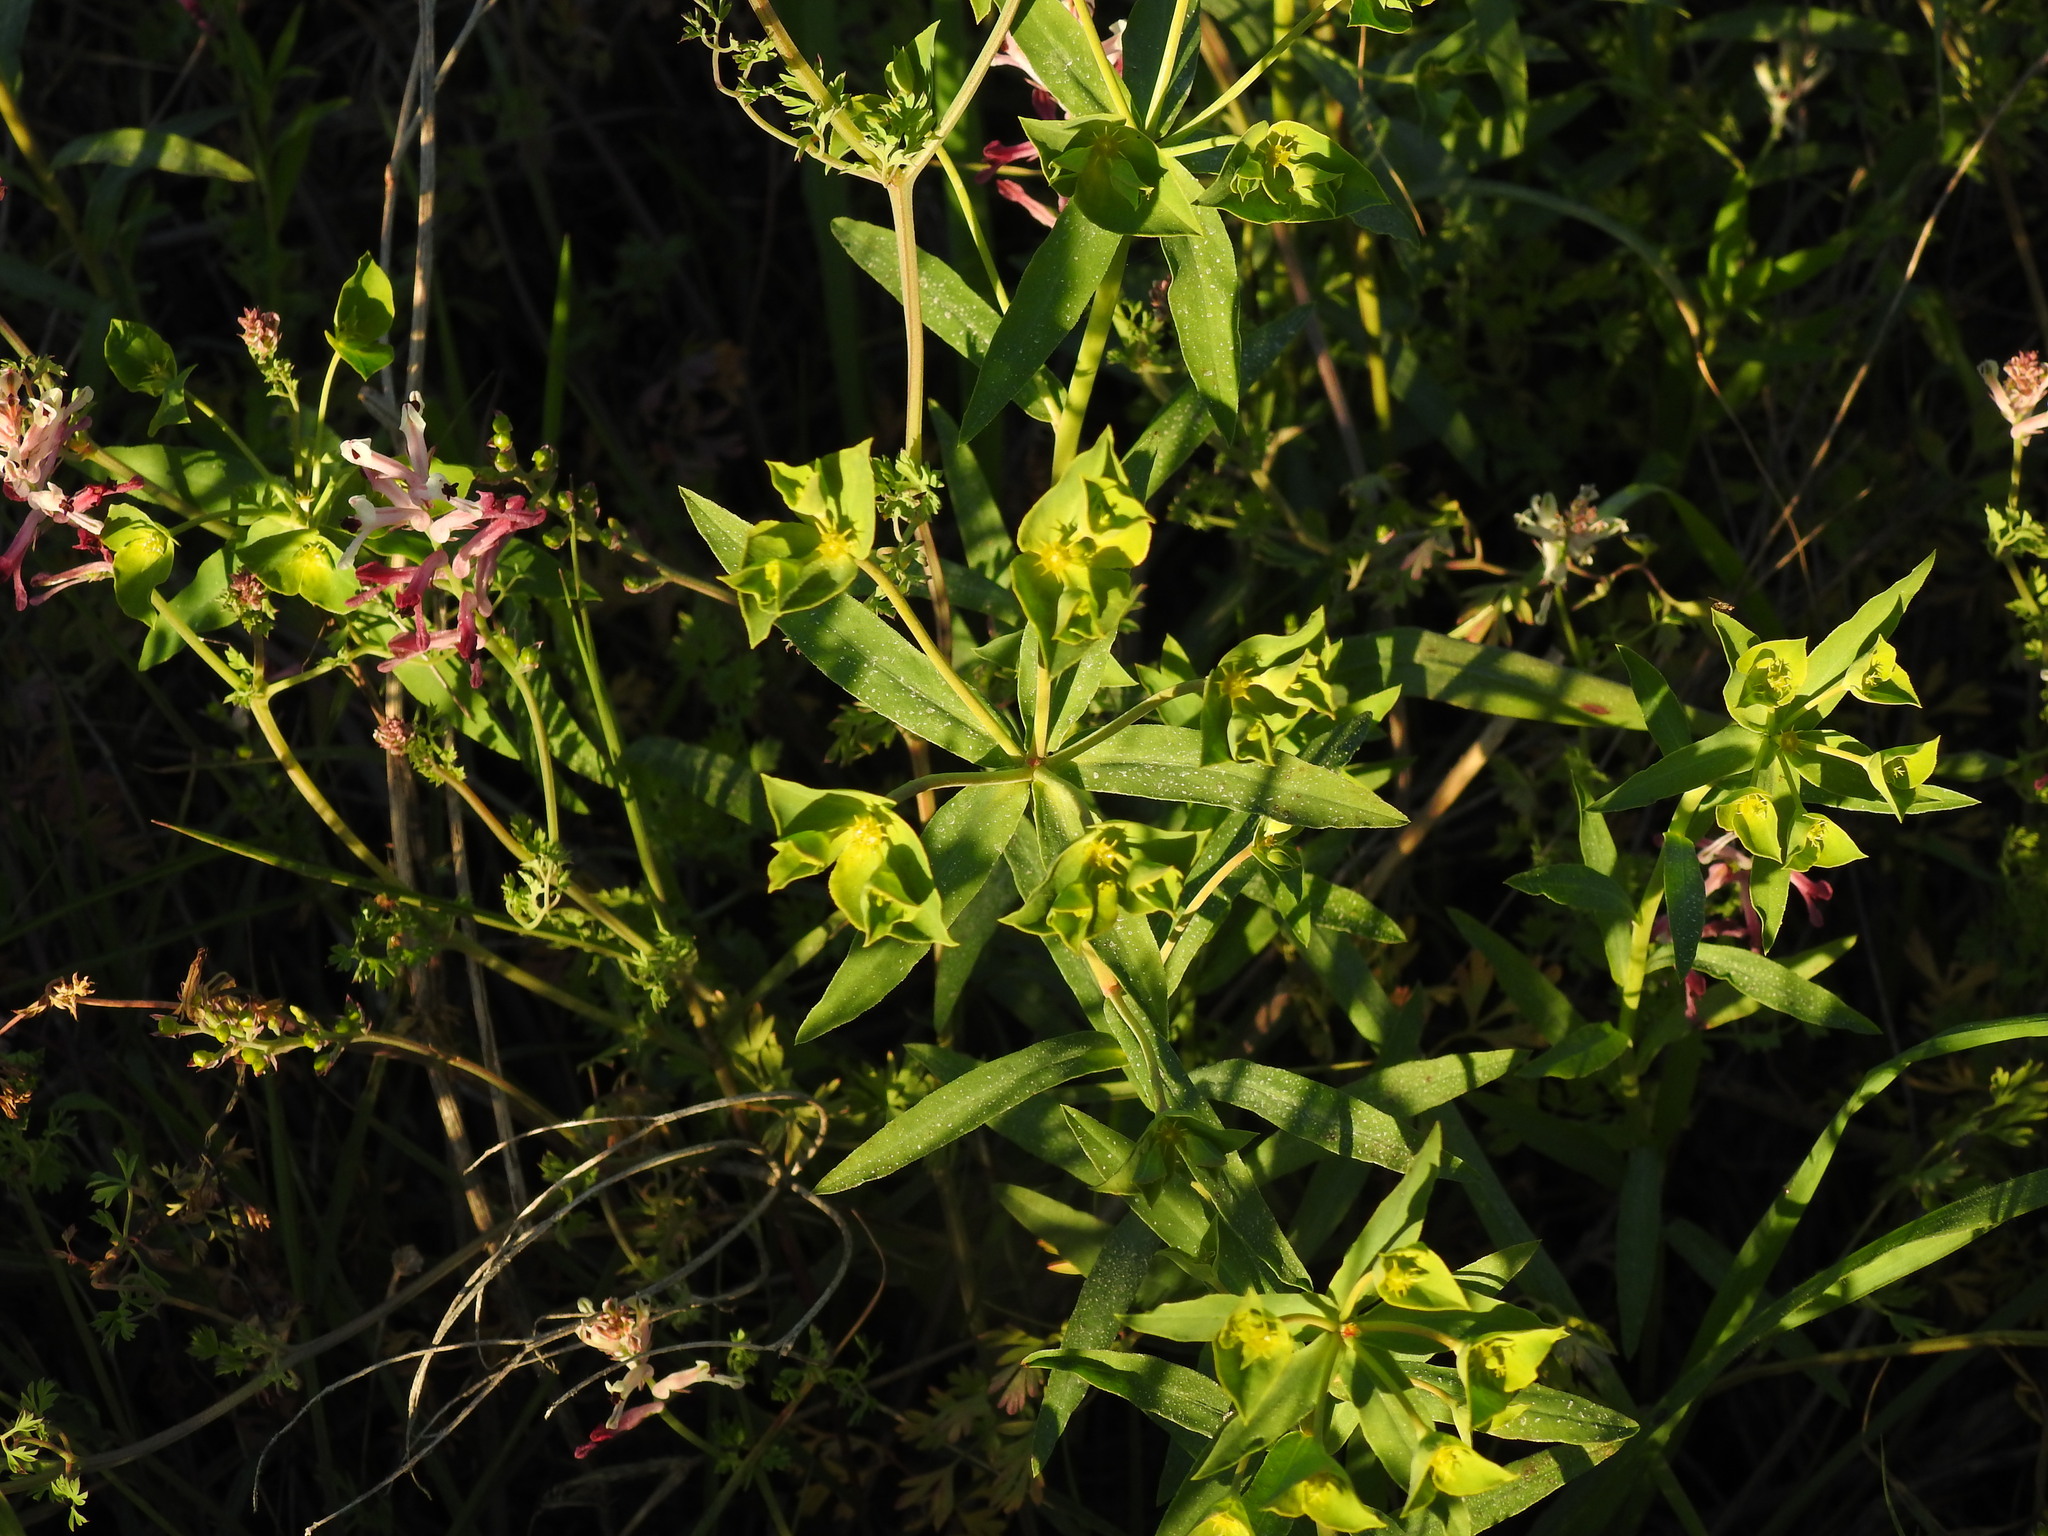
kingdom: Plantae
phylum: Tracheophyta
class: Magnoliopsida
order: Malpighiales
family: Euphorbiaceae
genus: Euphorbia
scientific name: Euphorbia terracina
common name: Geraldton carnation weed
